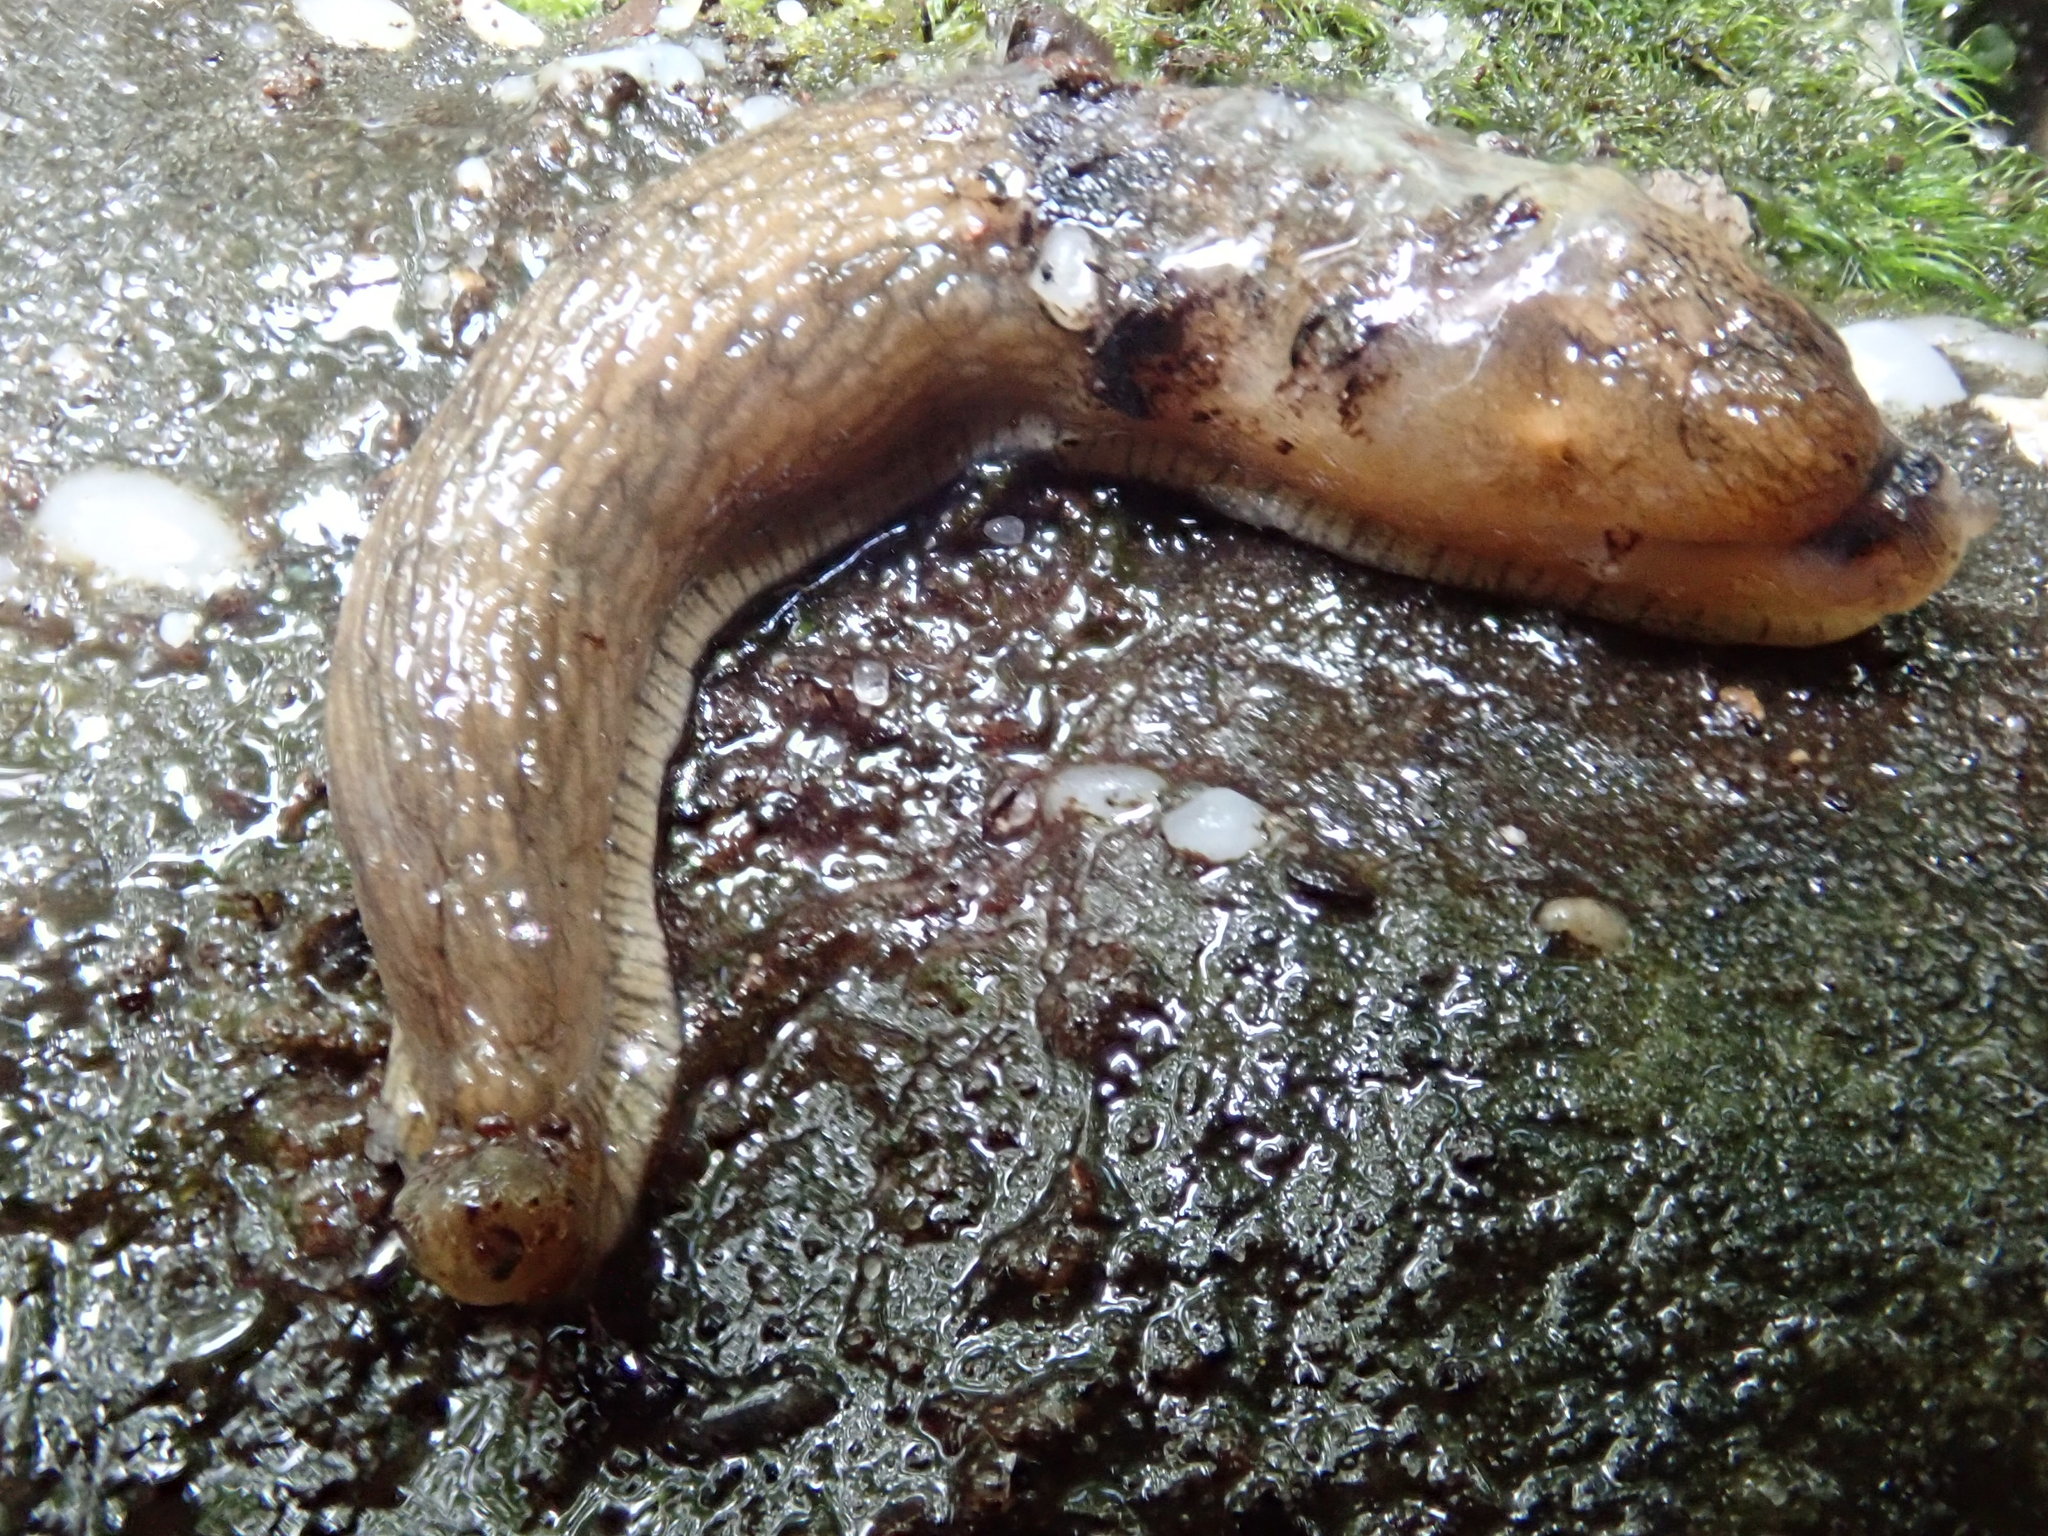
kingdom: Animalia
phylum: Mollusca
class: Gastropoda
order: Stylommatophora
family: Agriolimacidae
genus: Deroceras
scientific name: Deroceras reticulatum
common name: Gray field slug
